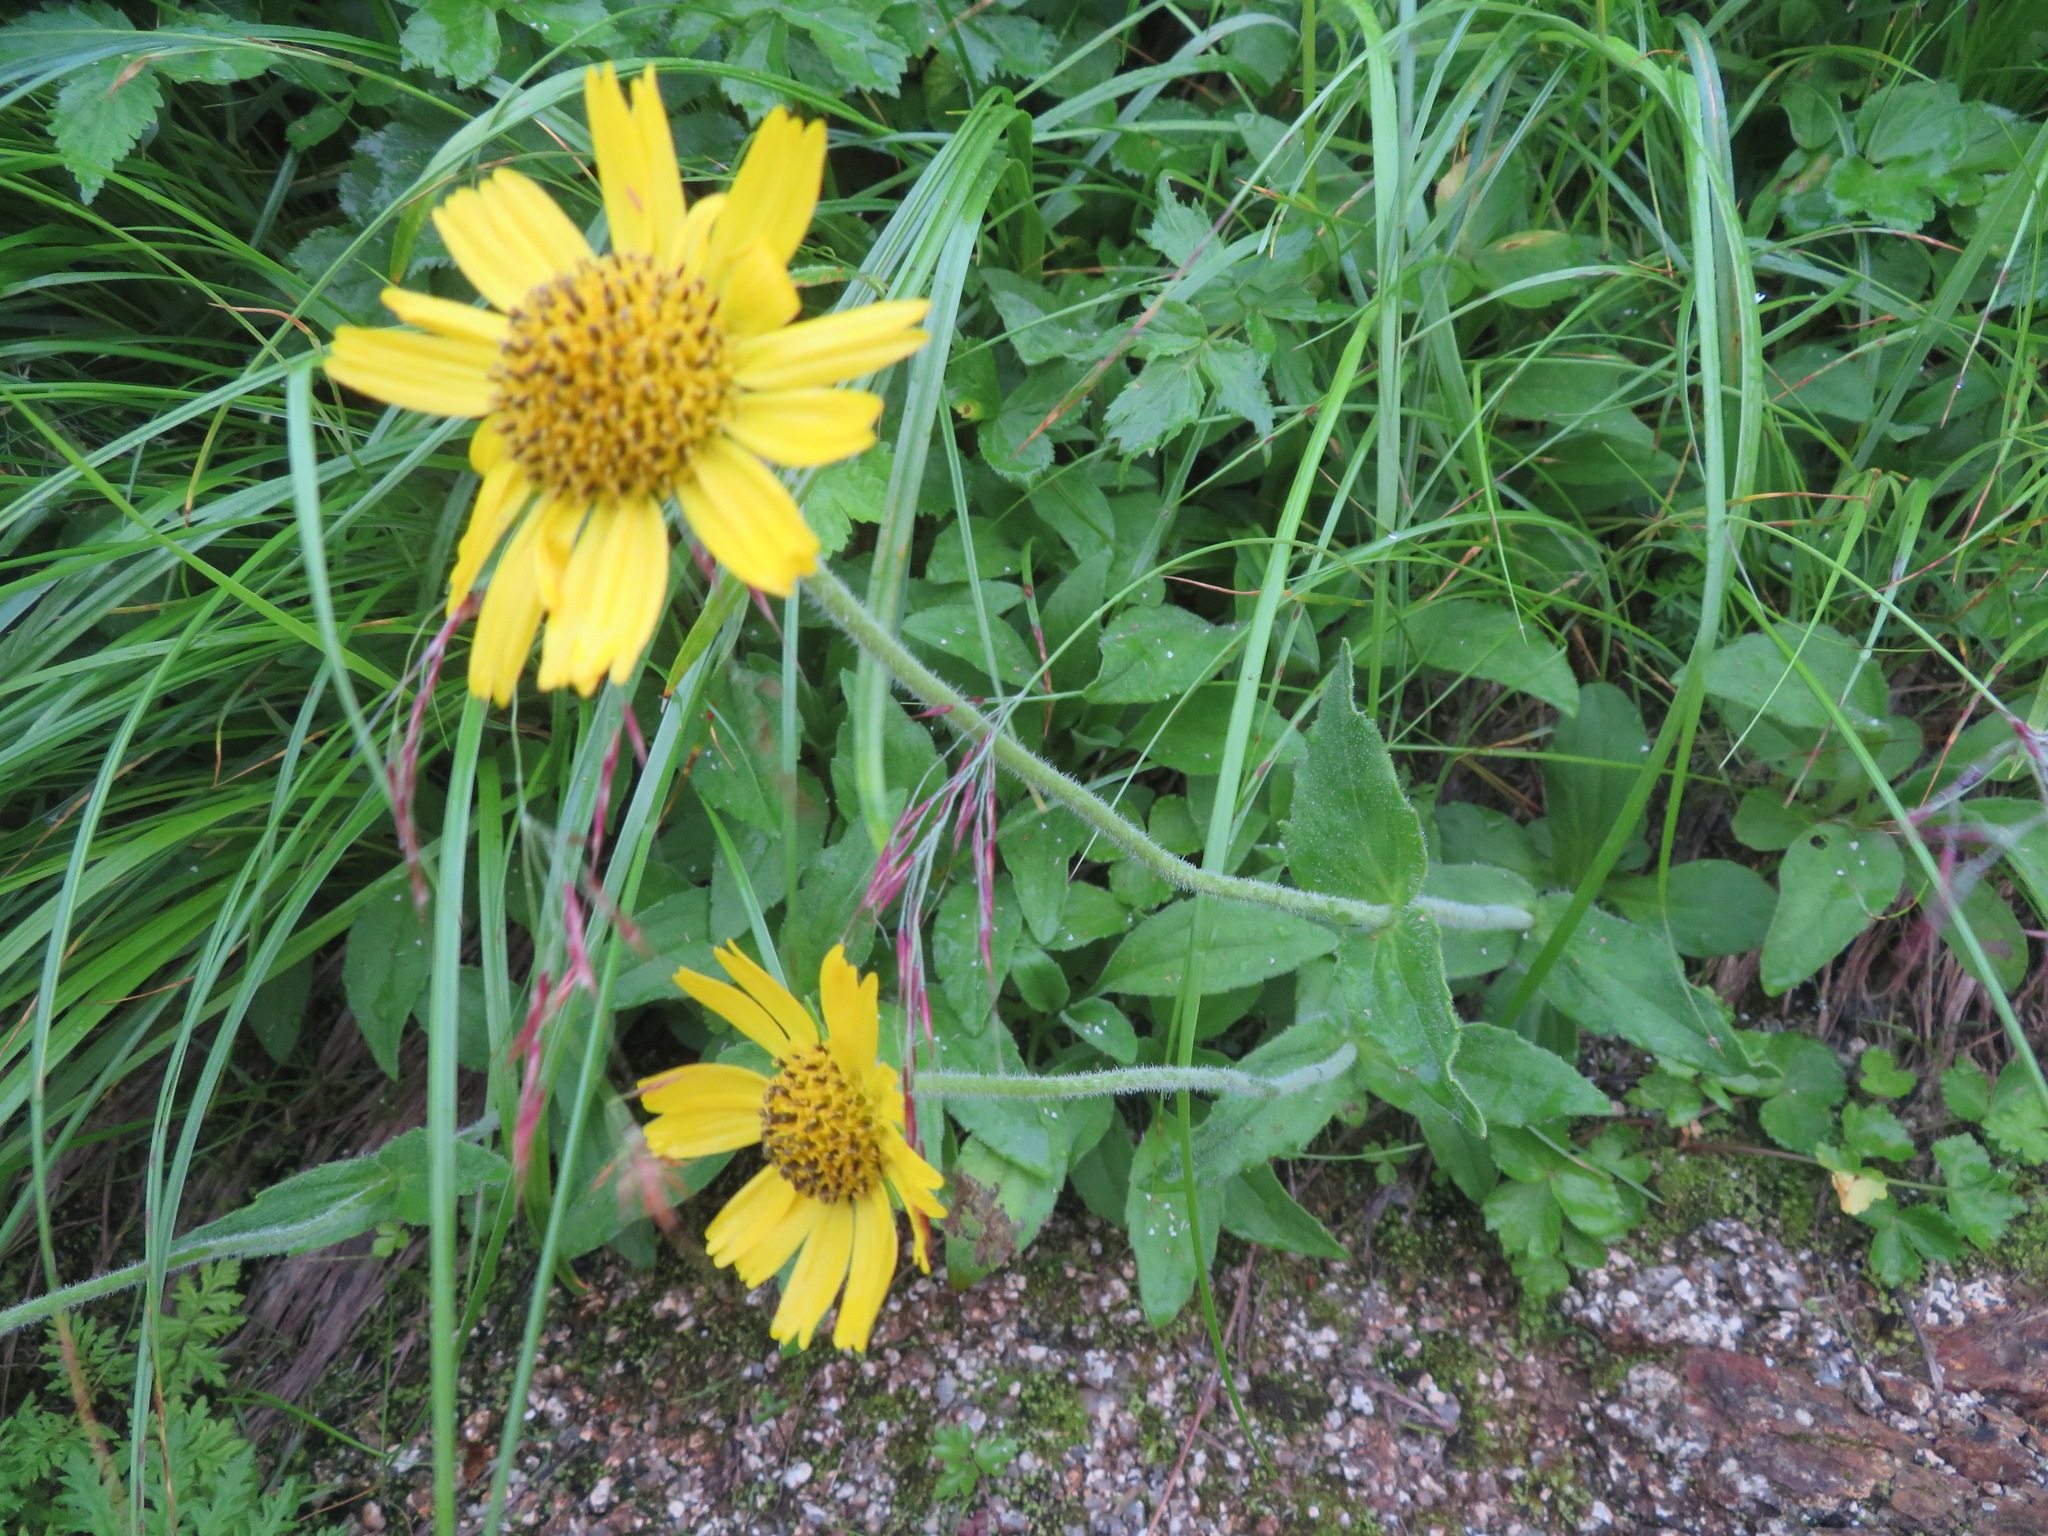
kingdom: Plantae
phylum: Tracheophyta
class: Magnoliopsida
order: Asterales
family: Asteraceae
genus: Arnica
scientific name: Arnica unalascensis
